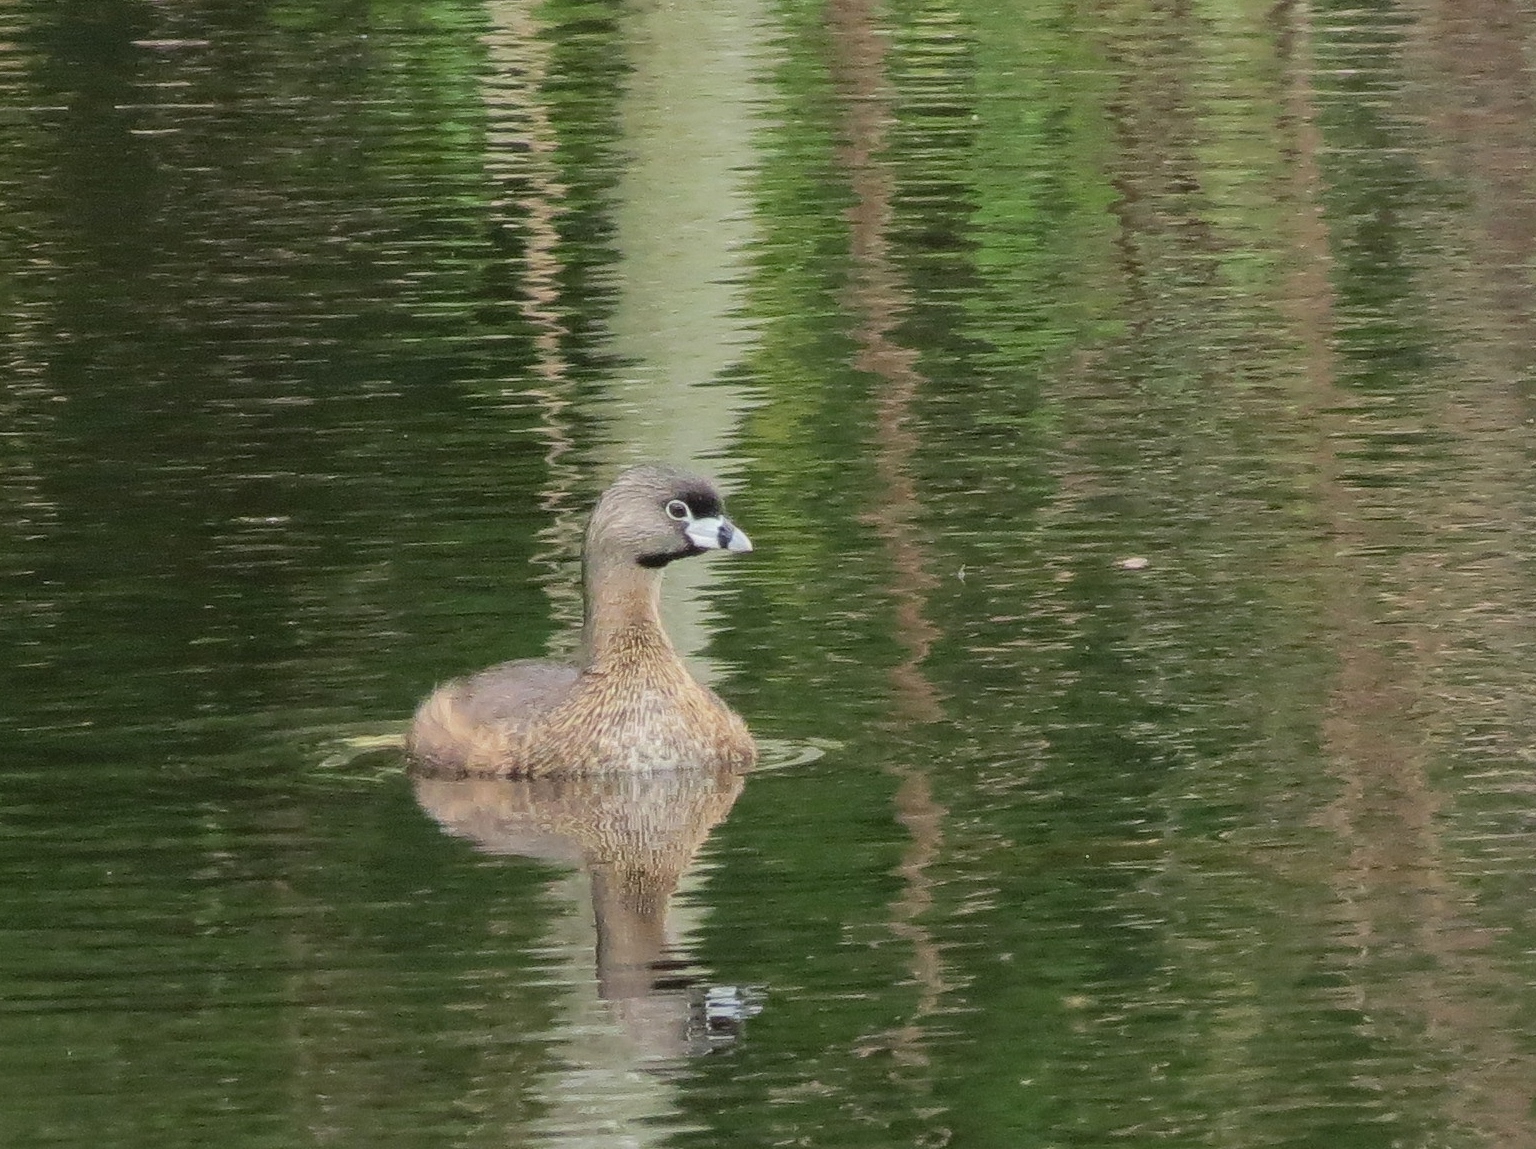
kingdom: Animalia
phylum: Chordata
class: Aves
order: Podicipediformes
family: Podicipedidae
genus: Podilymbus
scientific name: Podilymbus podiceps
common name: Pied-billed grebe
